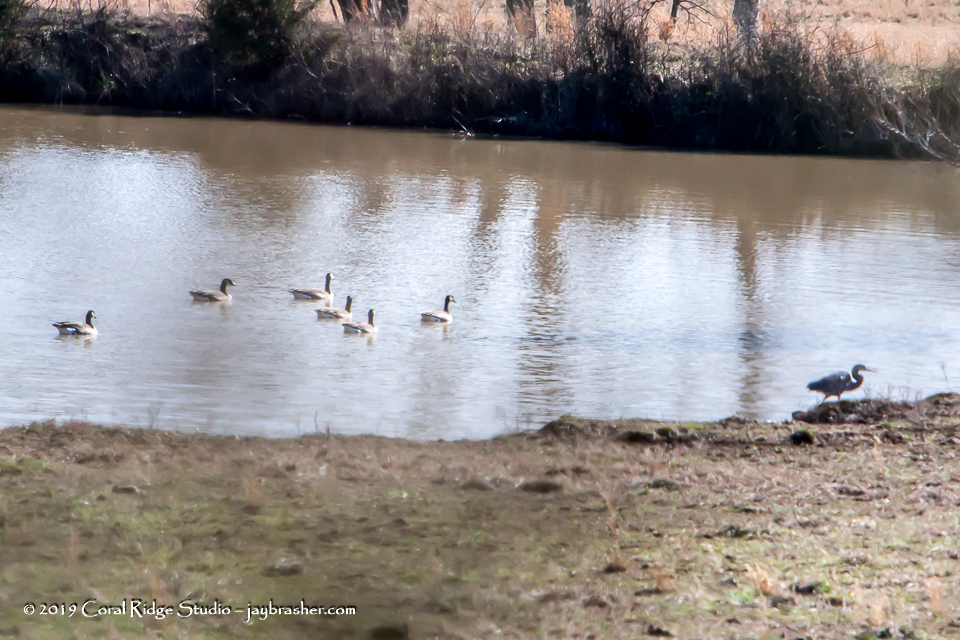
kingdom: Animalia
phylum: Chordata
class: Aves
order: Anseriformes
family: Anatidae
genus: Branta
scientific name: Branta canadensis
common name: Canada goose
